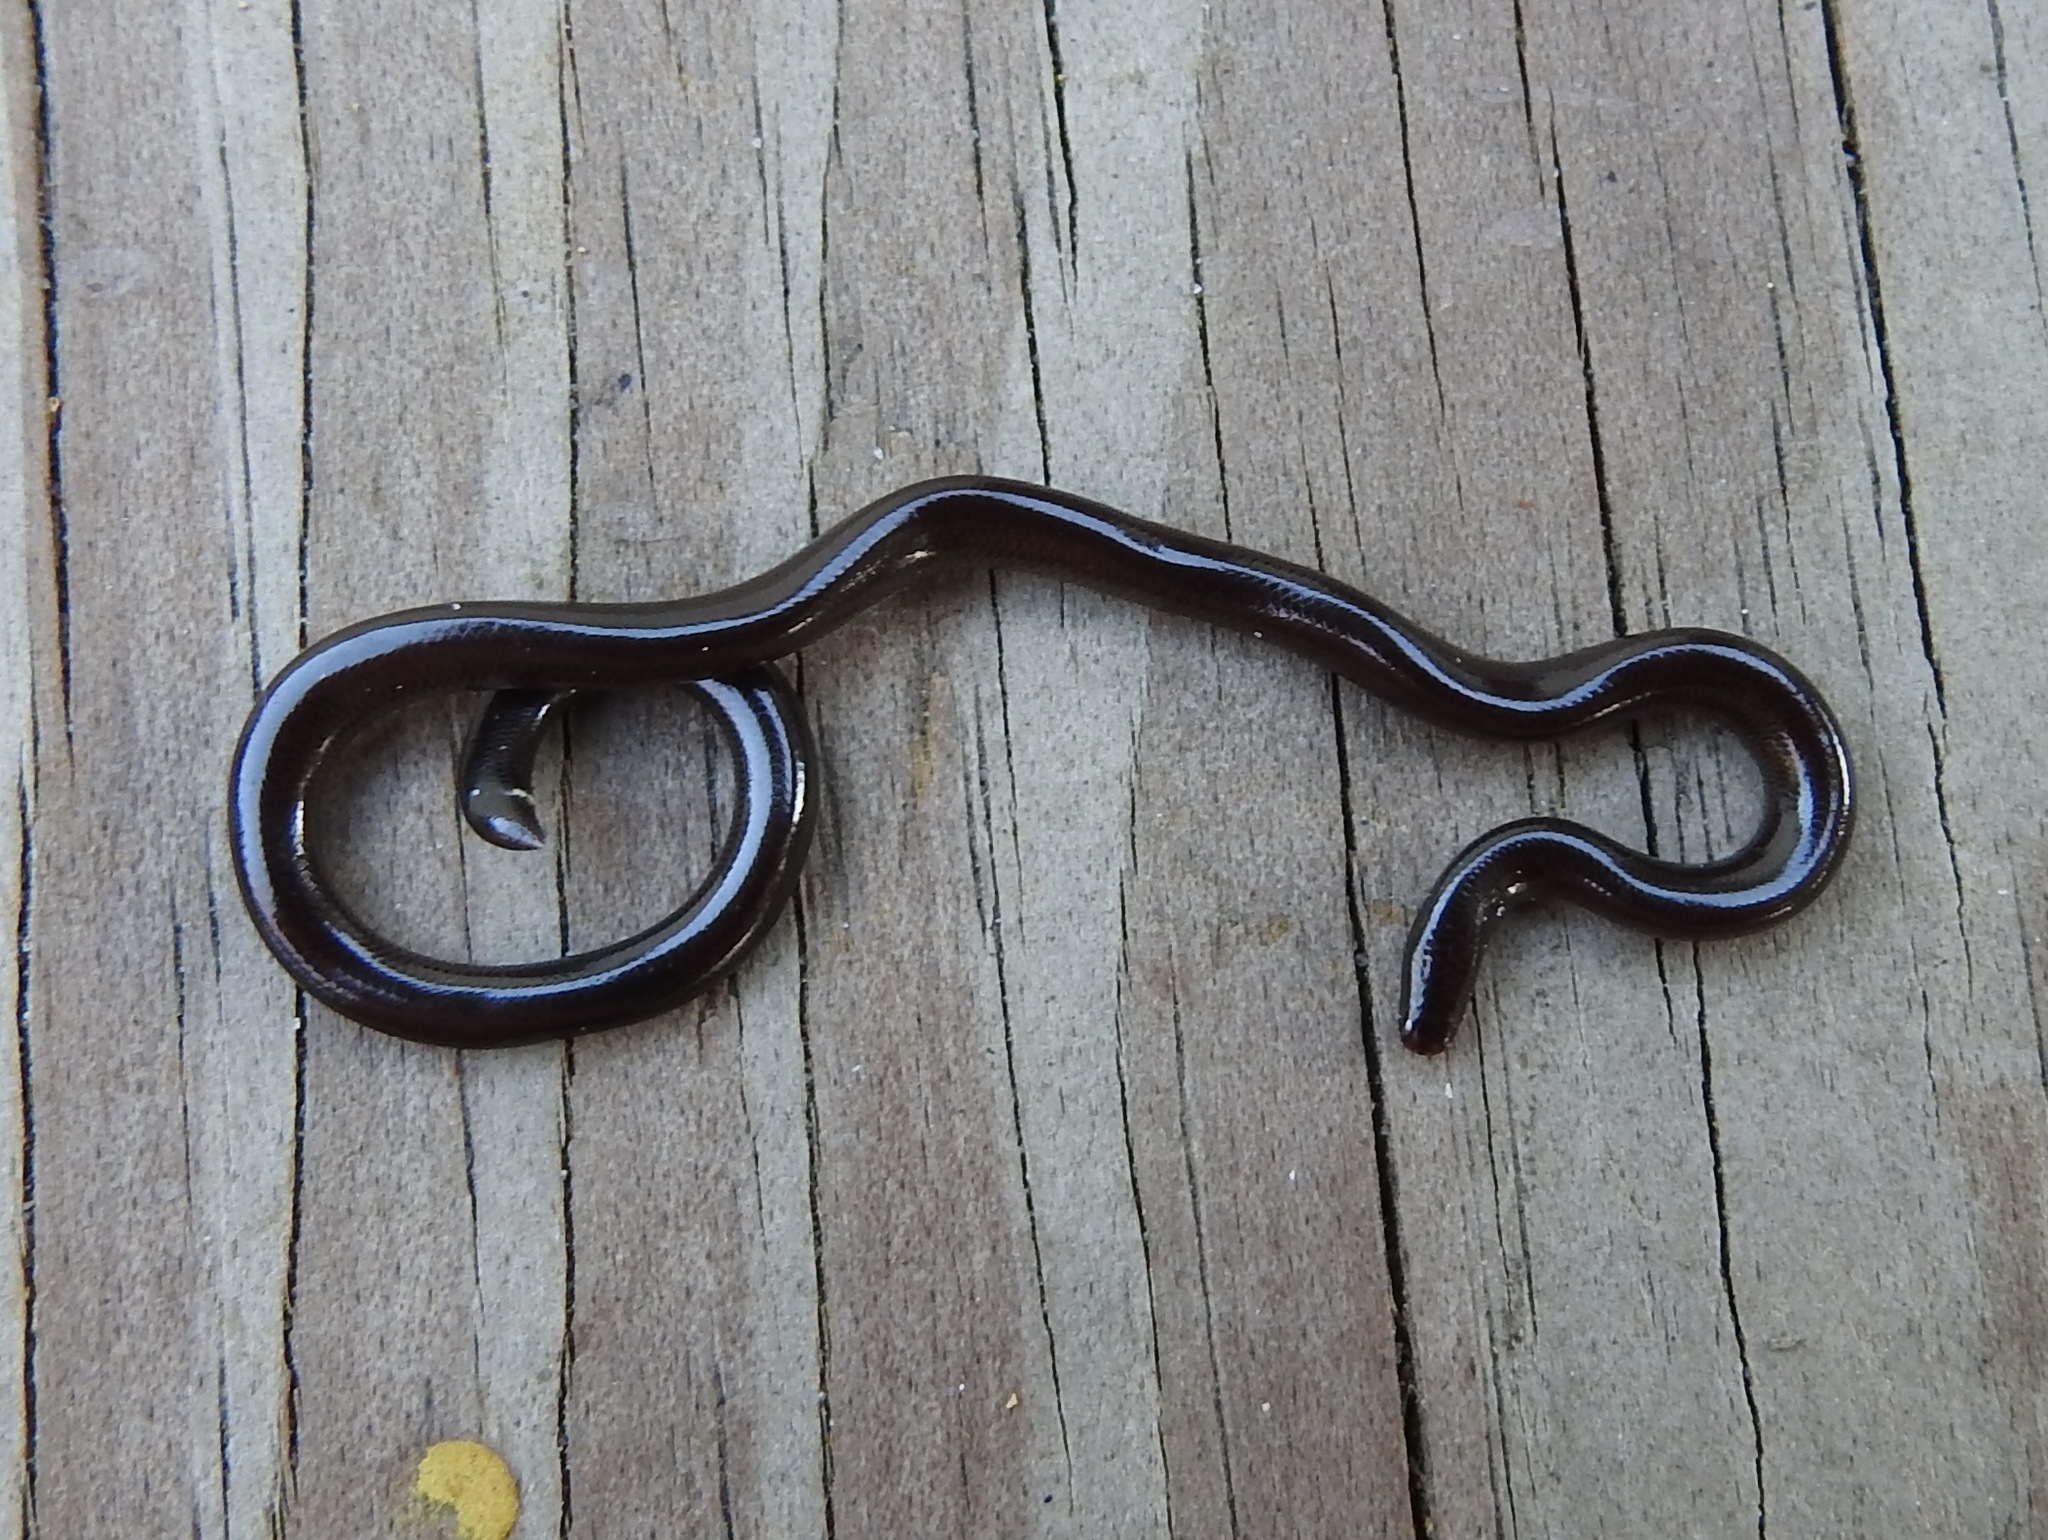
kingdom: Animalia
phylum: Chordata
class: Squamata
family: Typhlopidae
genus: Indotyphlops
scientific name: Indotyphlops braminus
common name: Brahminy blindsnake
